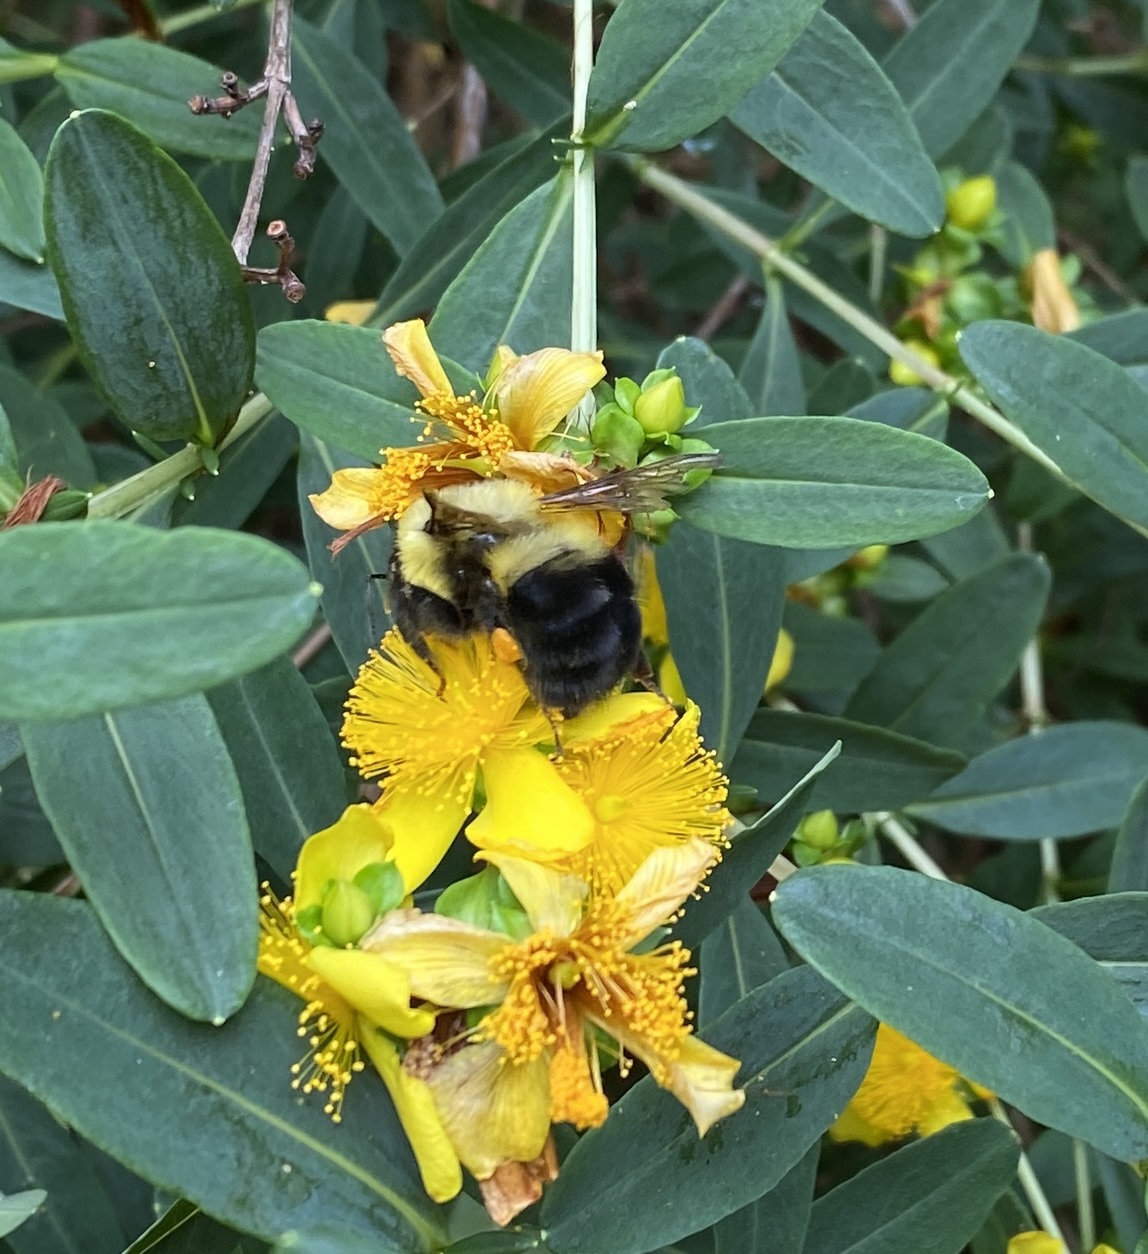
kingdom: Animalia
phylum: Arthropoda
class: Insecta
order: Hymenoptera
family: Apidae
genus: Bombus
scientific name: Bombus bimaculatus
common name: Two-spotted bumble bee
